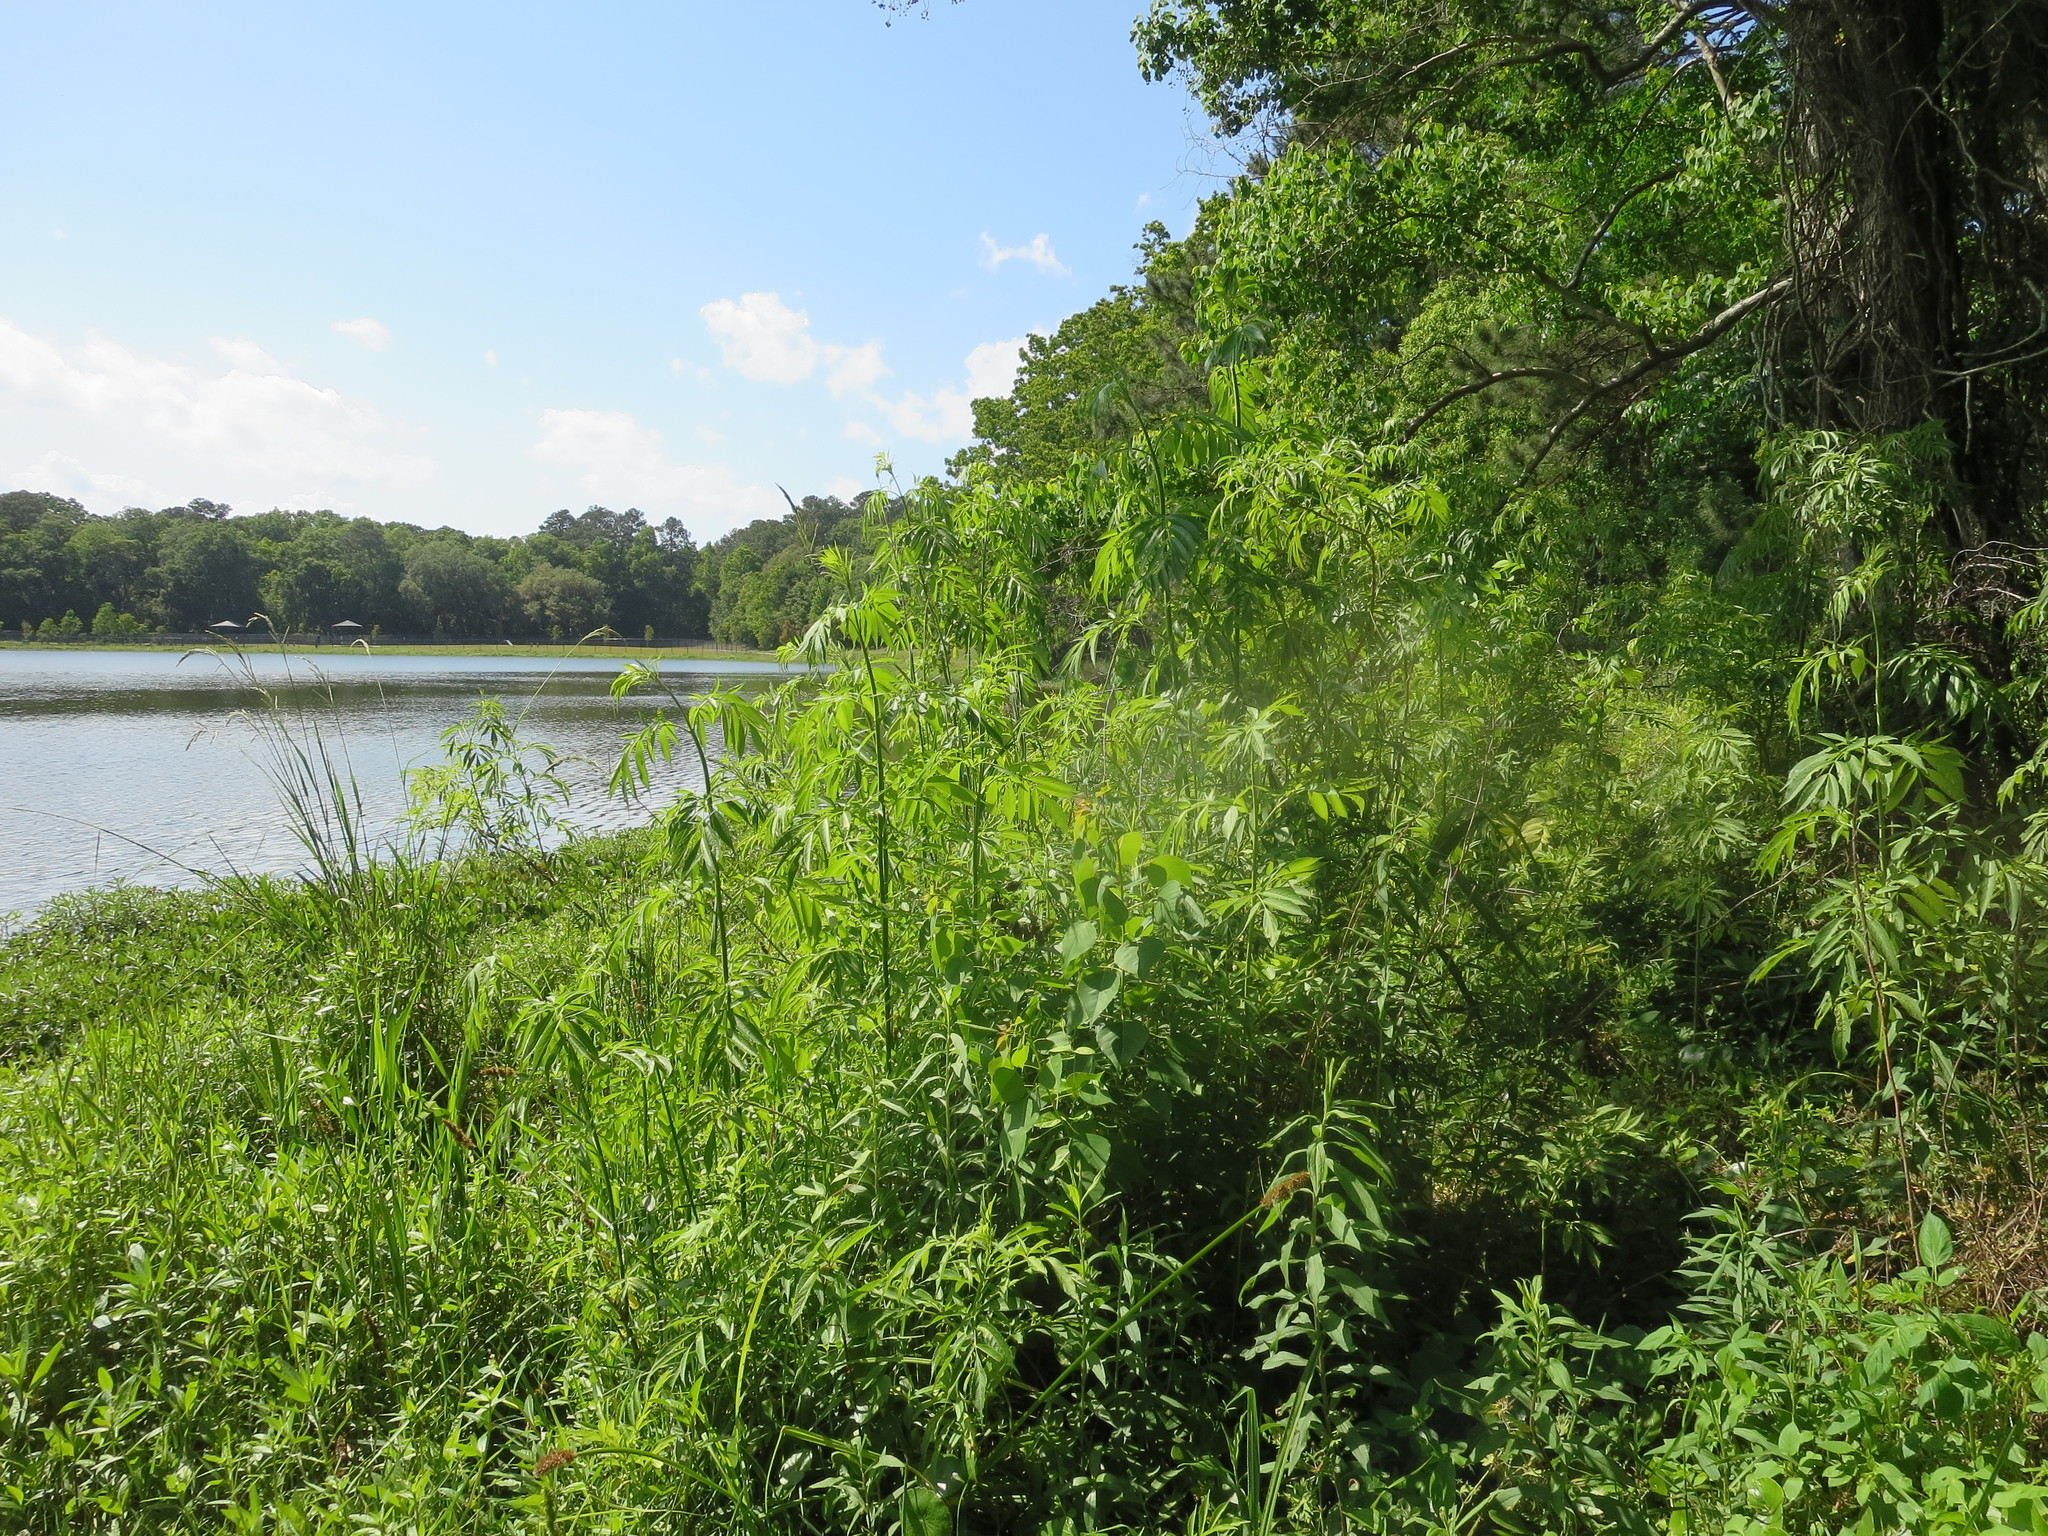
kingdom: Plantae
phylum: Tracheophyta
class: Magnoliopsida
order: Dipsacales
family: Viburnaceae
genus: Sambucus
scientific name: Sambucus canadensis
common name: American elder
